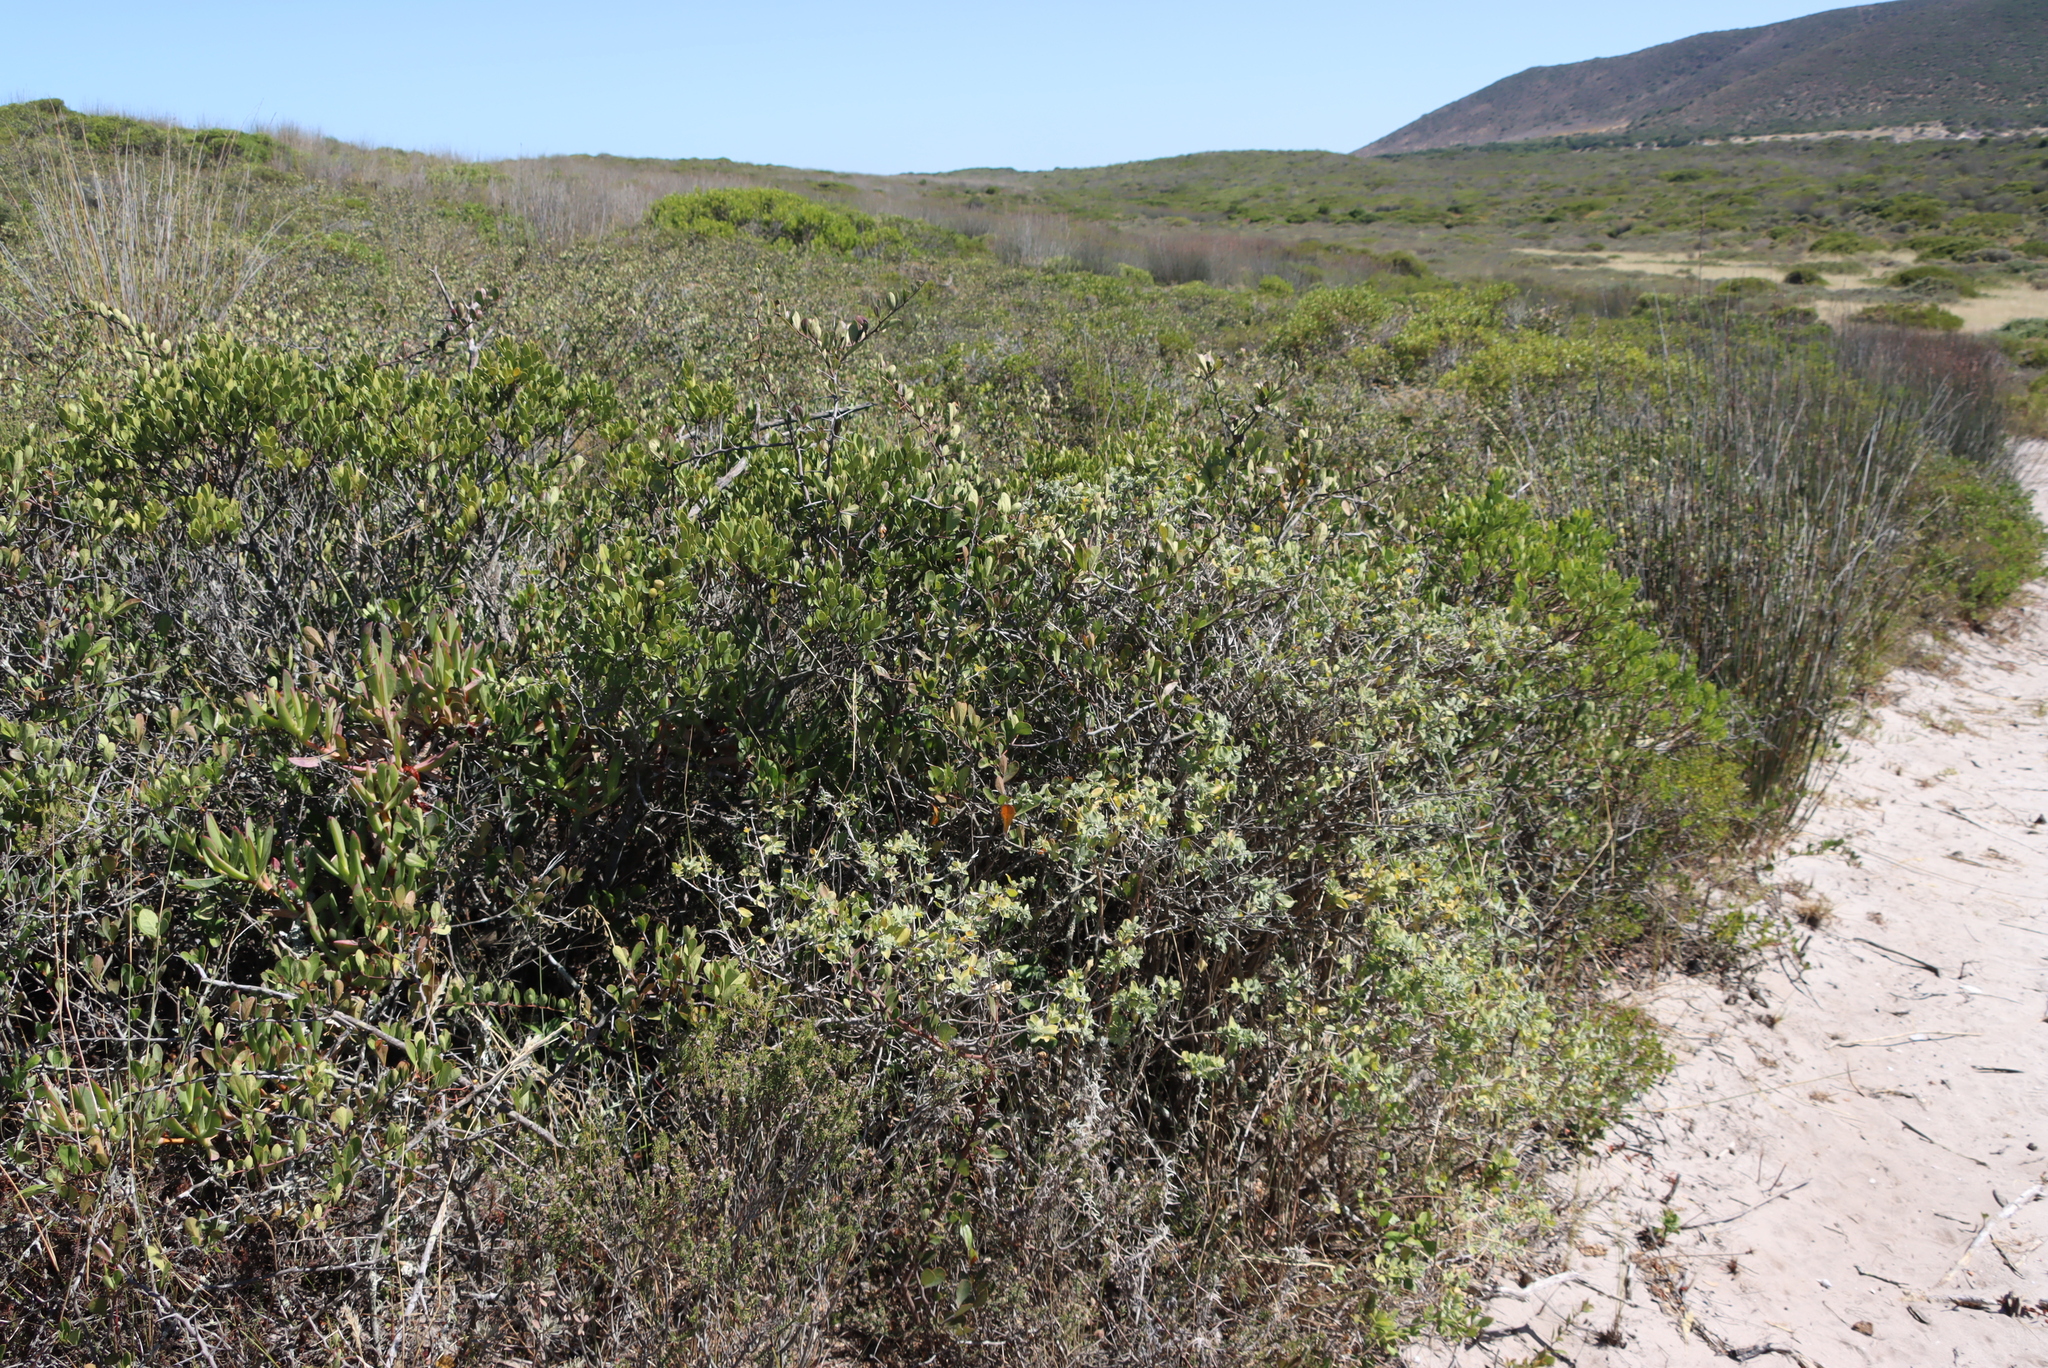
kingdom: Plantae
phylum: Tracheophyta
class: Magnoliopsida
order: Lamiales
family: Lamiaceae
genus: Salvia
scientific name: Salvia aurea
